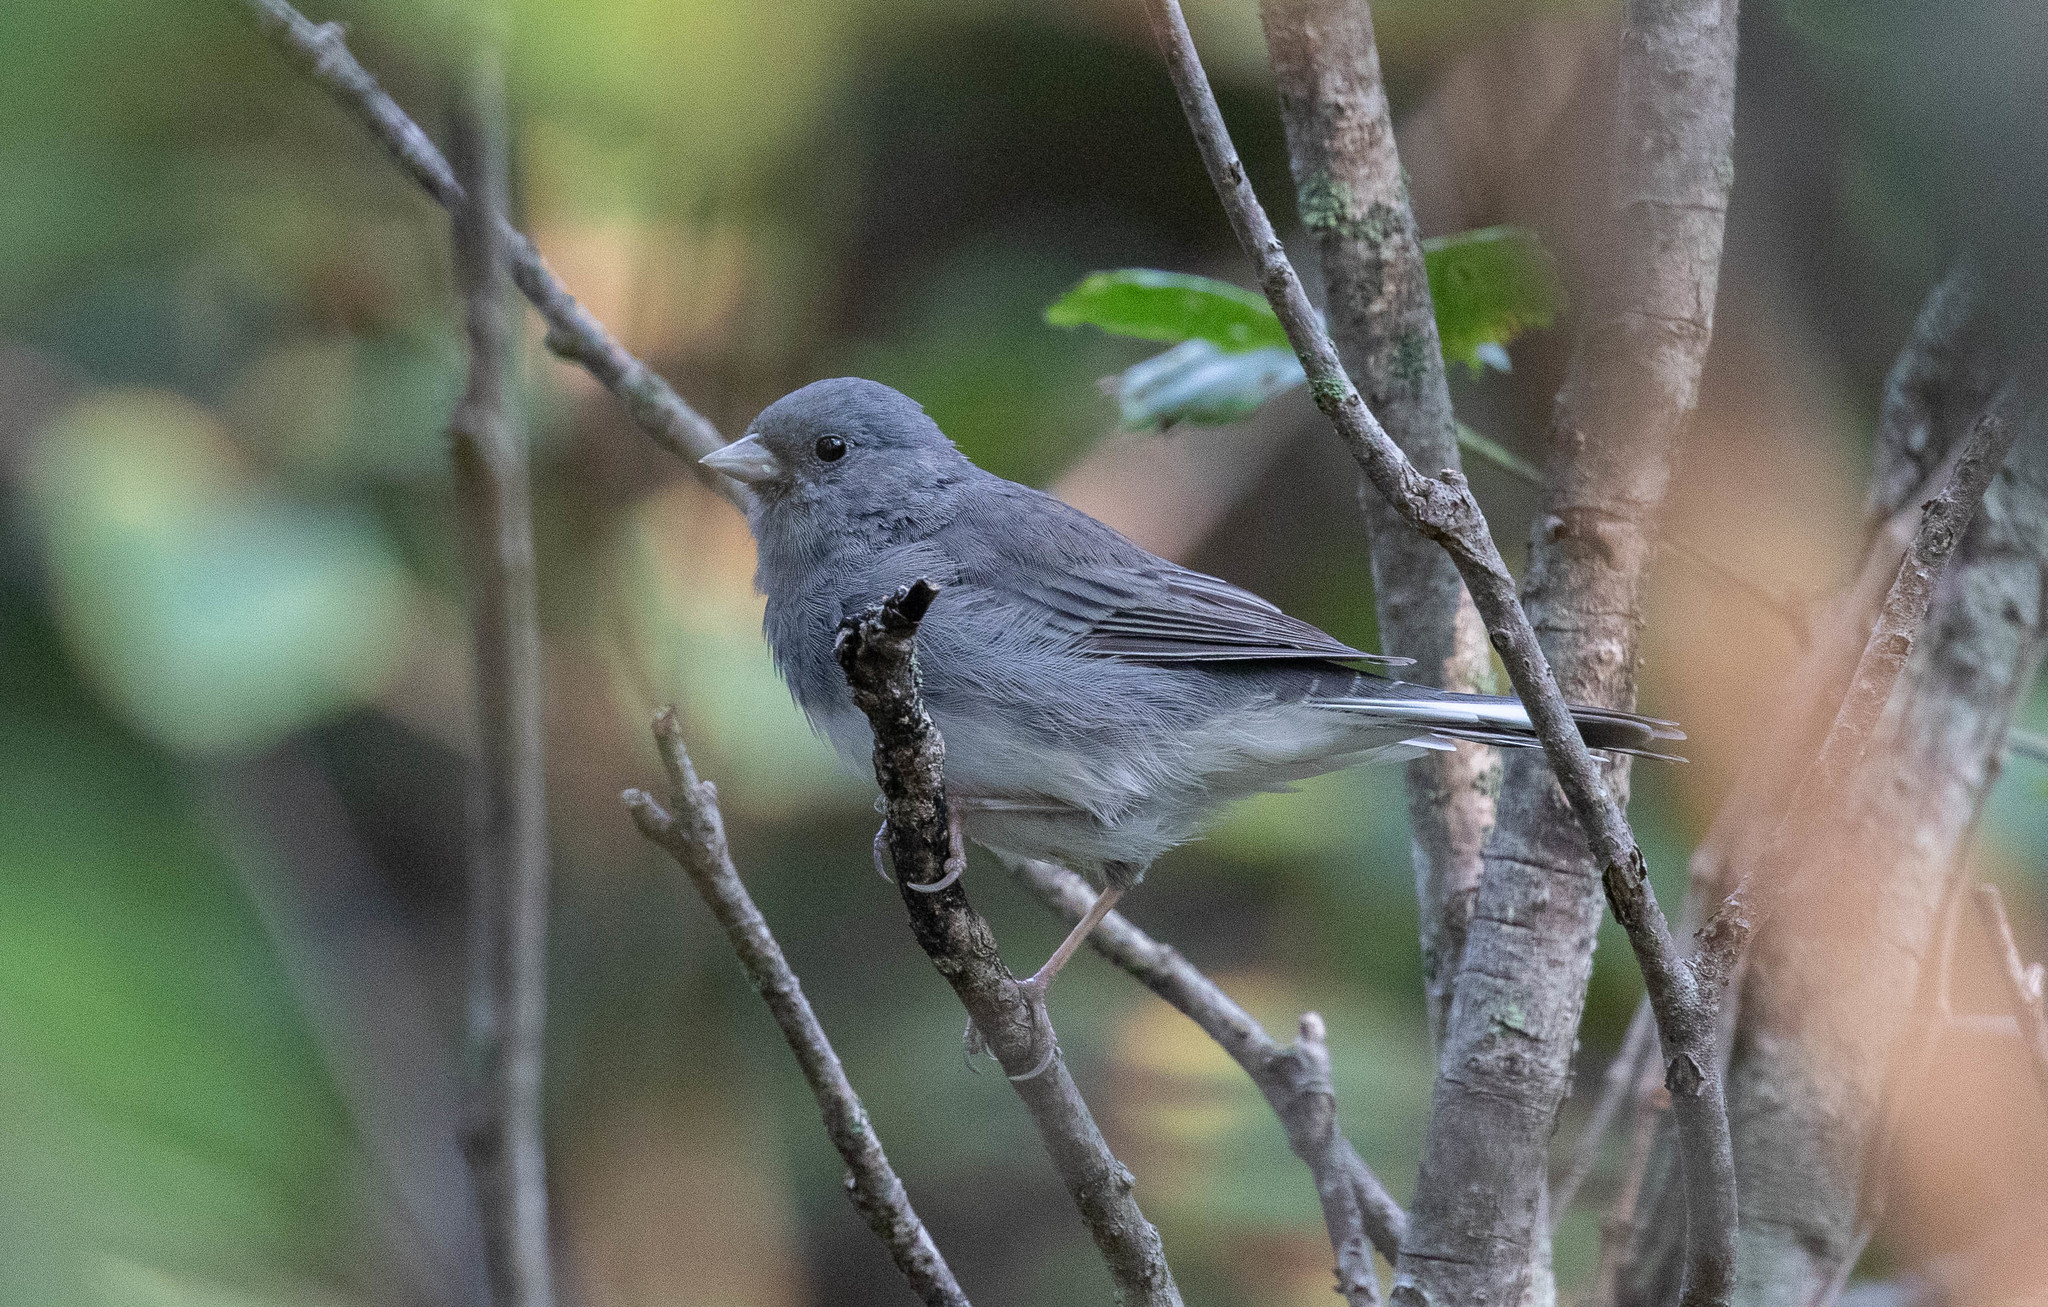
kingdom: Animalia
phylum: Chordata
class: Aves
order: Passeriformes
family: Passerellidae
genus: Junco
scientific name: Junco hyemalis
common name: Dark-eyed junco
